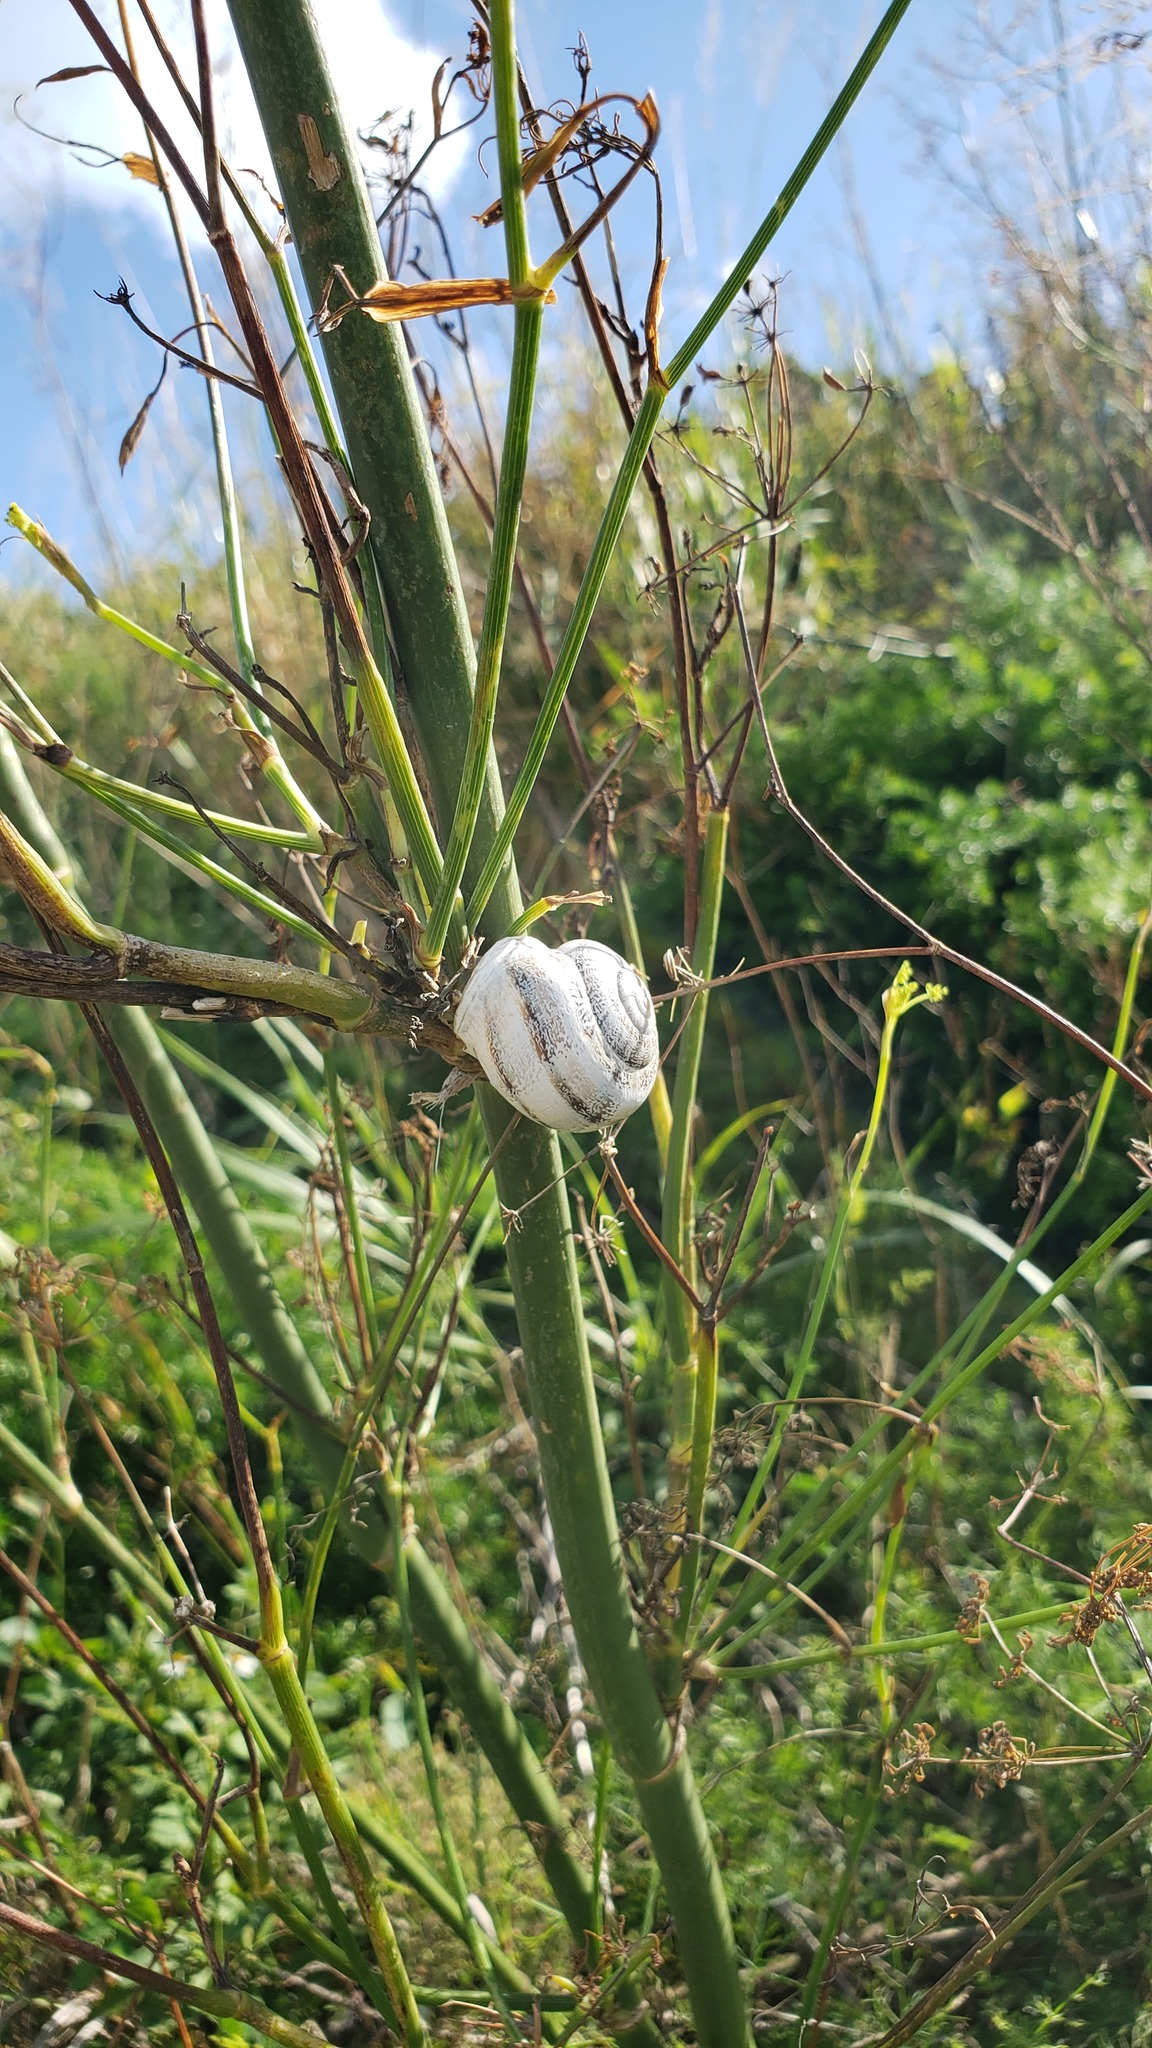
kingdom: Animalia
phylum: Mollusca
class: Gastropoda
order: Stylommatophora
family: Helicidae
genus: Otala
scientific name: Otala lactea
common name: Milk snail
